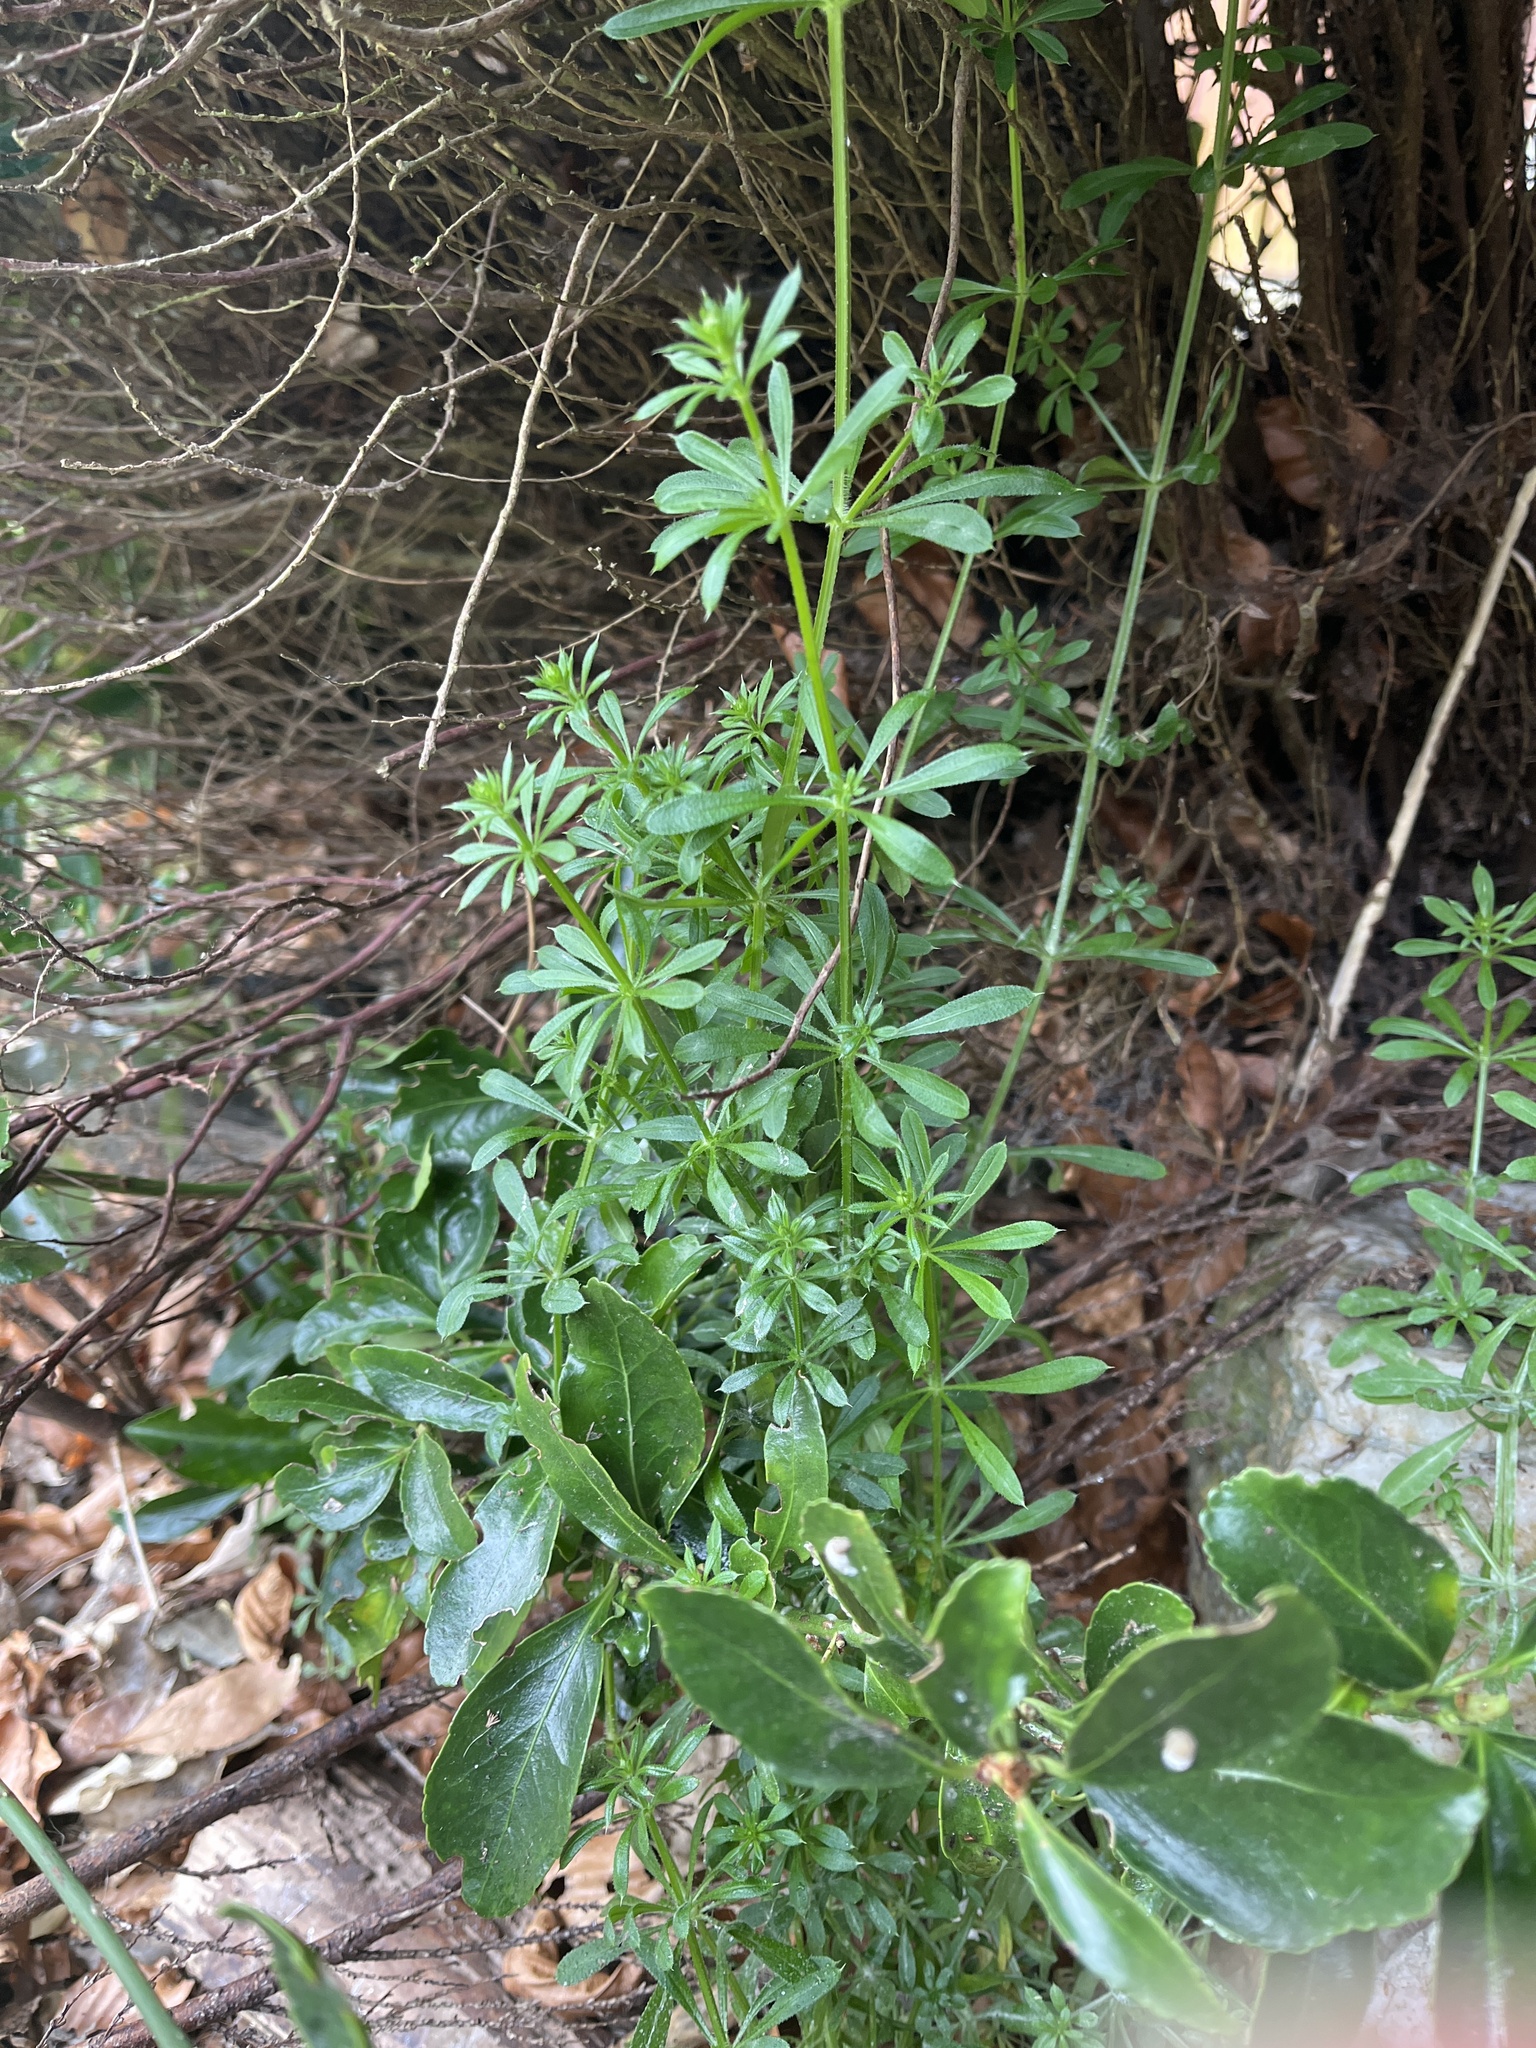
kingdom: Plantae
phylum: Tracheophyta
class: Magnoliopsida
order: Gentianales
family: Rubiaceae
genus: Galium
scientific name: Galium aparine
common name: Cleavers
